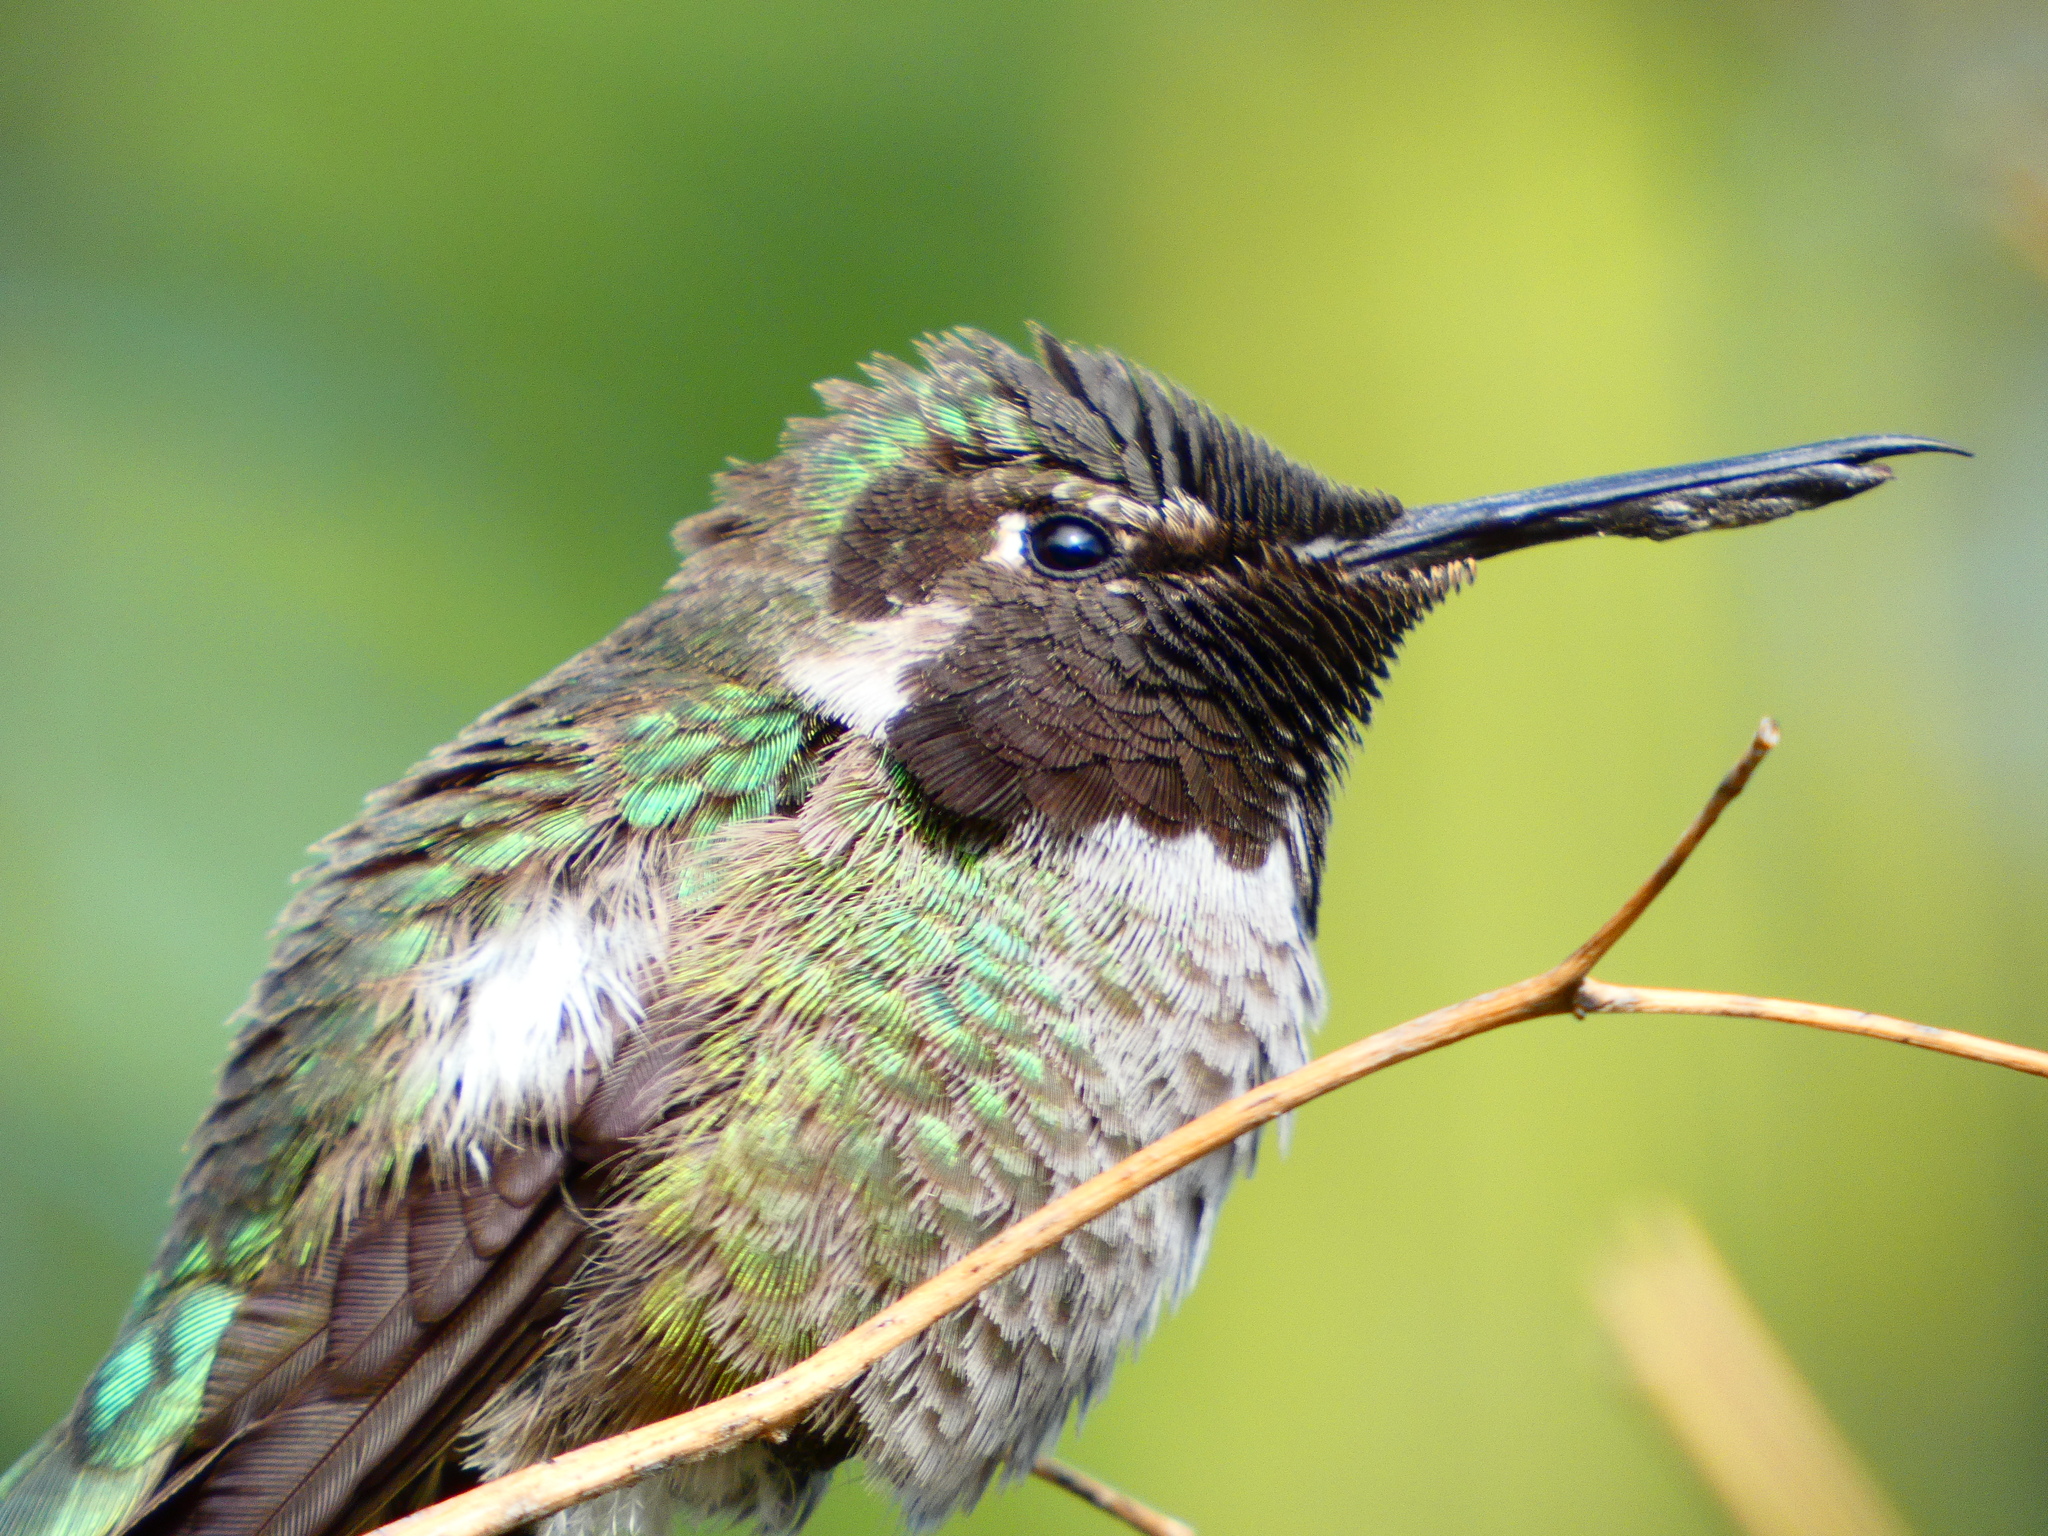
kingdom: Animalia
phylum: Chordata
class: Aves
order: Apodiformes
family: Trochilidae
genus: Calypte
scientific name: Calypte anna
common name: Anna's hummingbird
